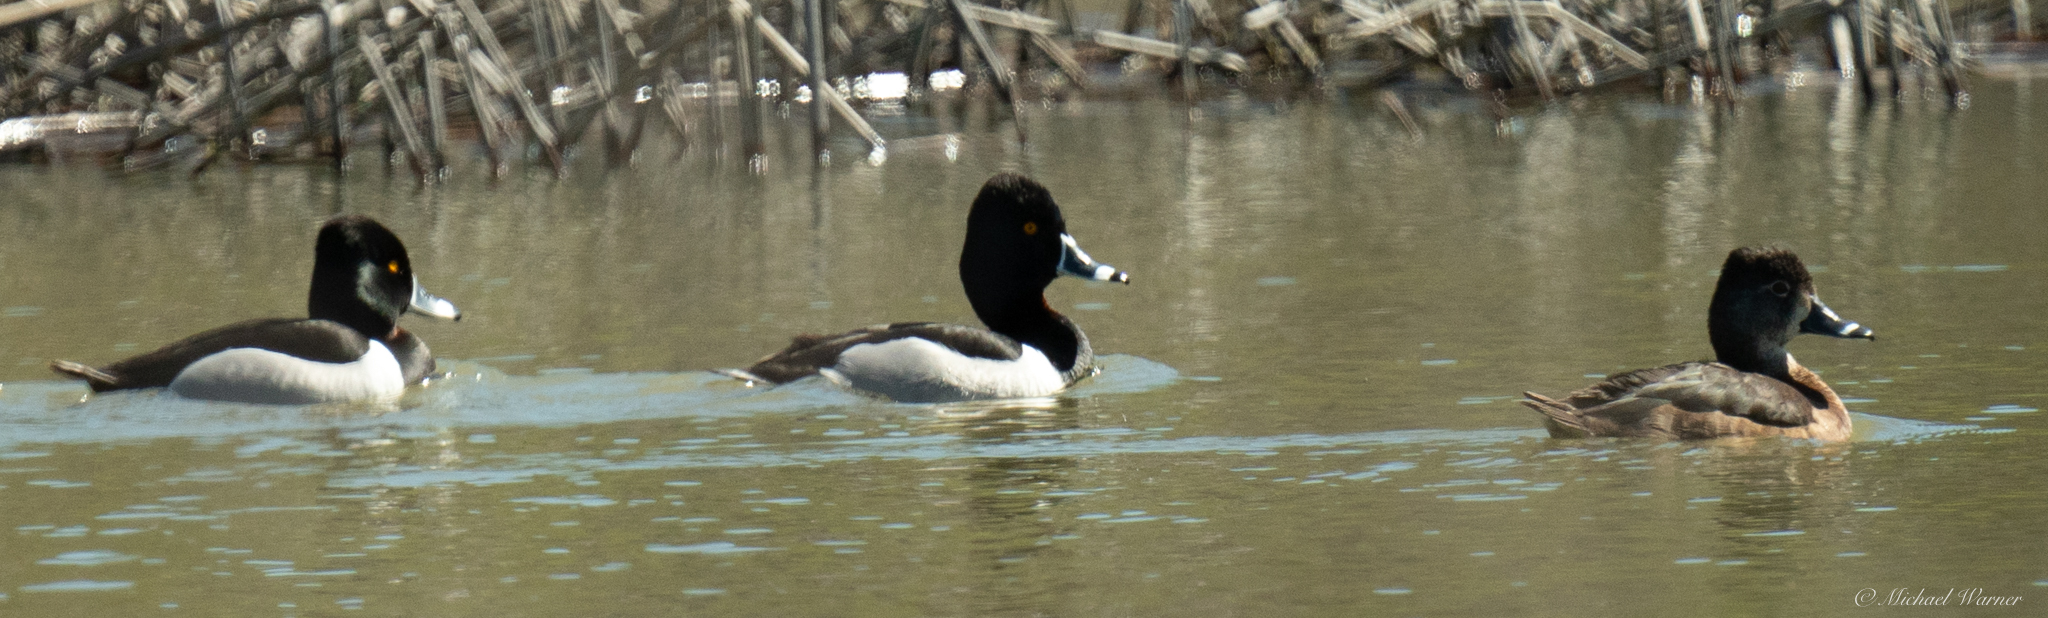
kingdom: Animalia
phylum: Chordata
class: Aves
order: Anseriformes
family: Anatidae
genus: Aythya
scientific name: Aythya collaris
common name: Ring-necked duck
